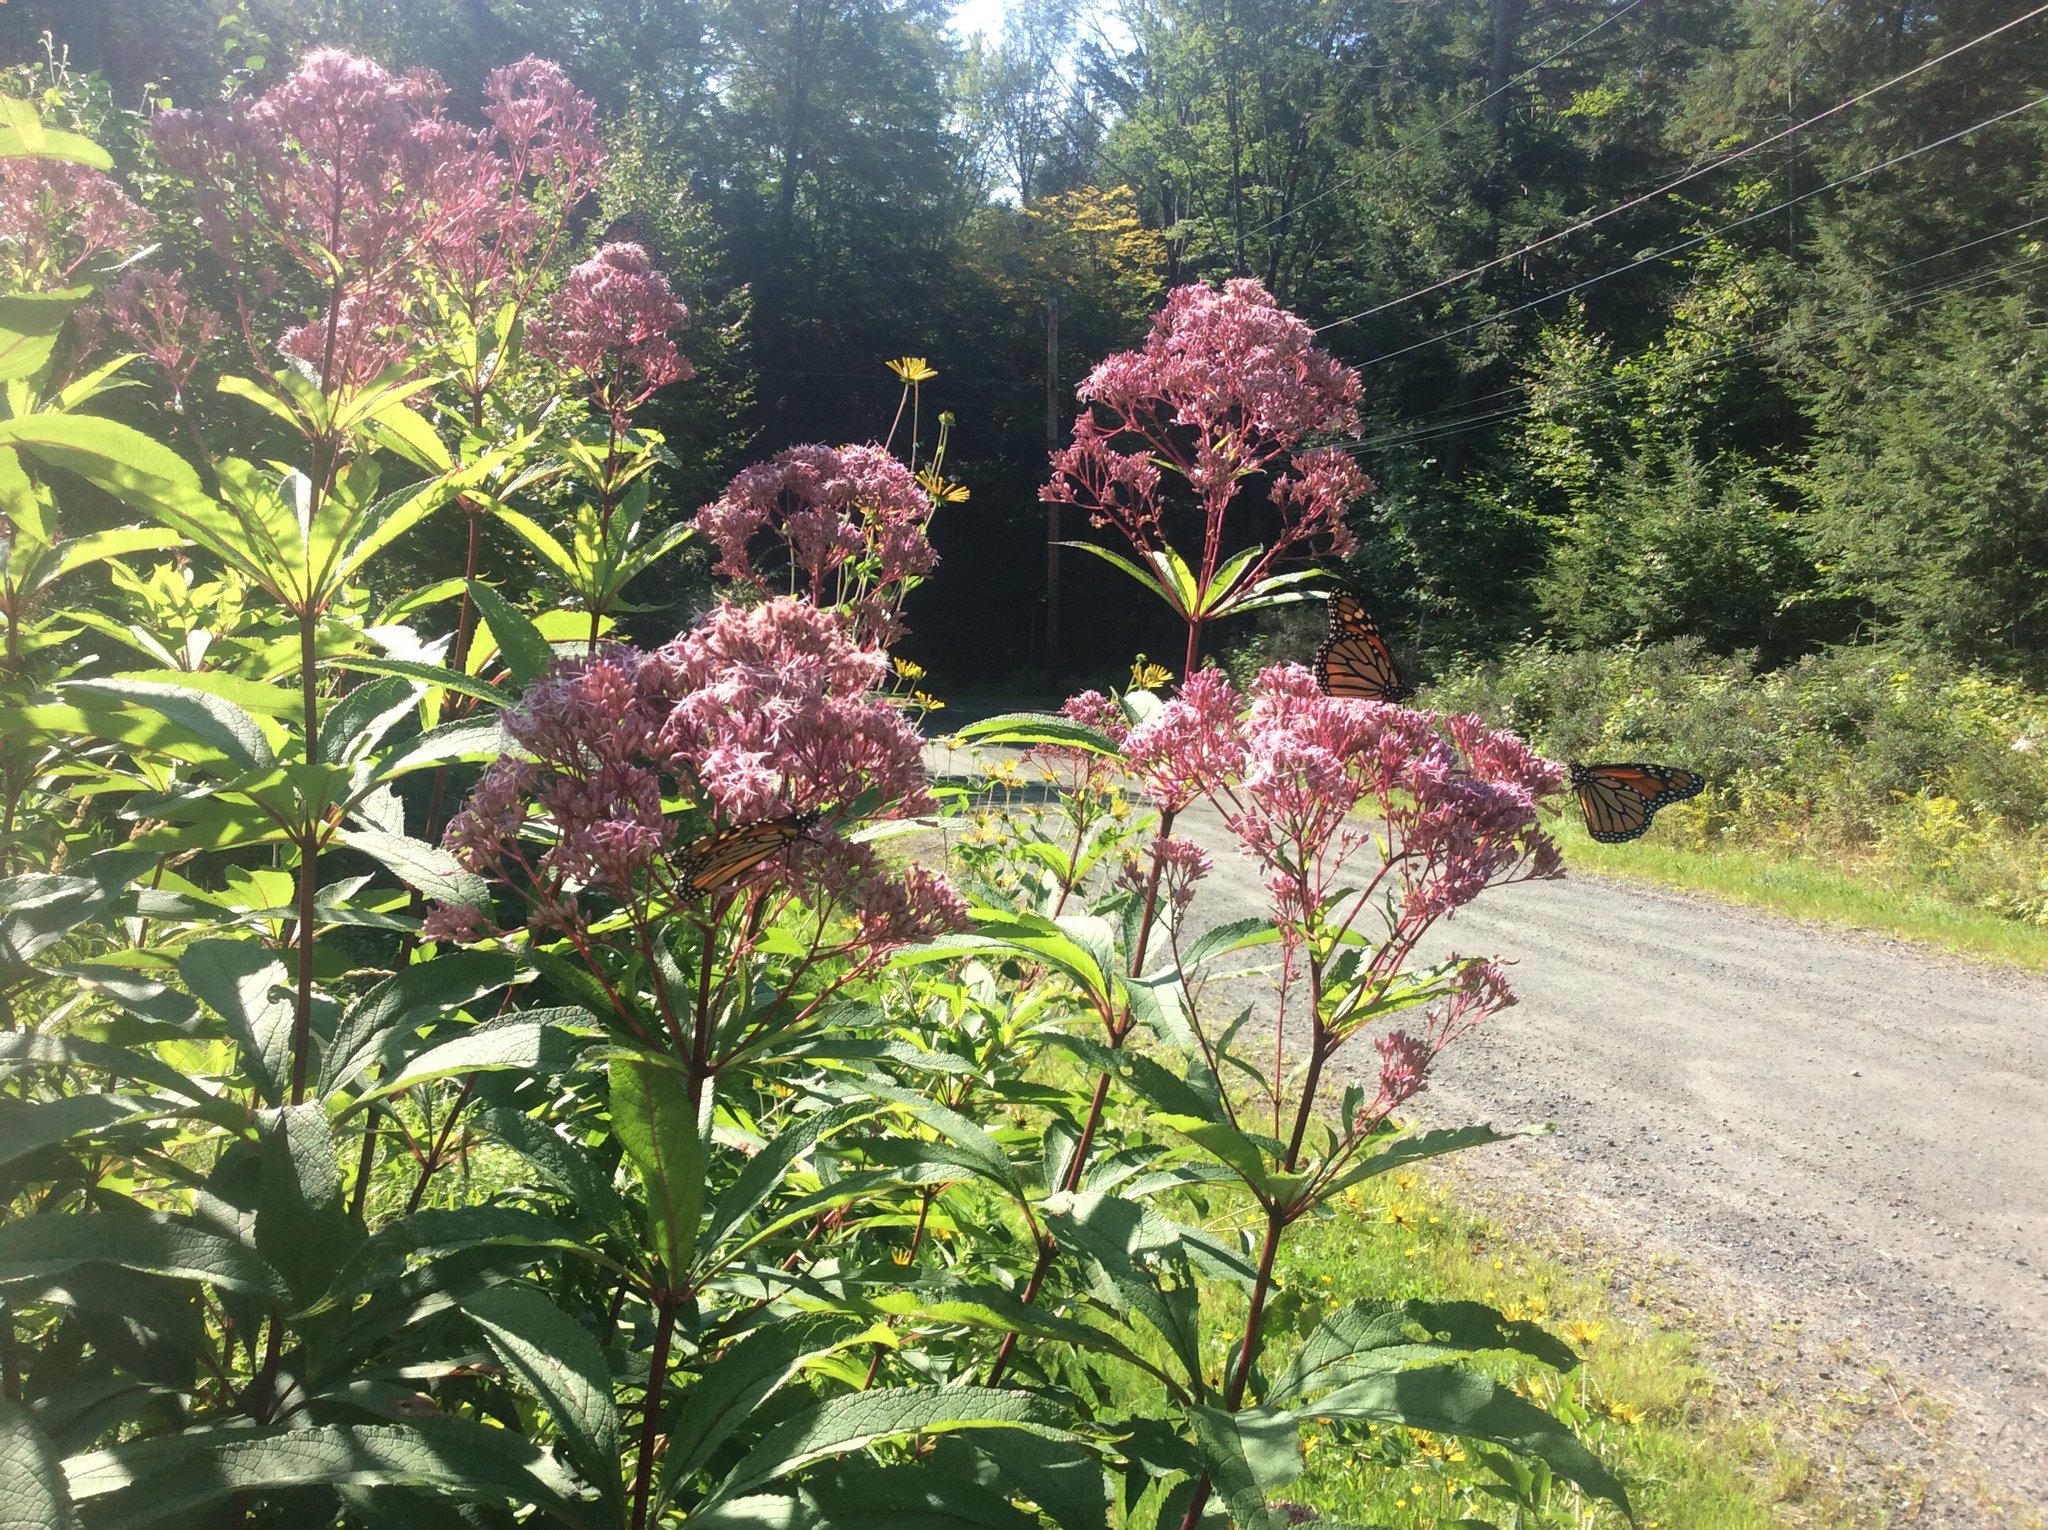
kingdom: Animalia
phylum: Arthropoda
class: Insecta
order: Lepidoptera
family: Nymphalidae
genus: Danaus
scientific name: Danaus plexippus
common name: Monarch
